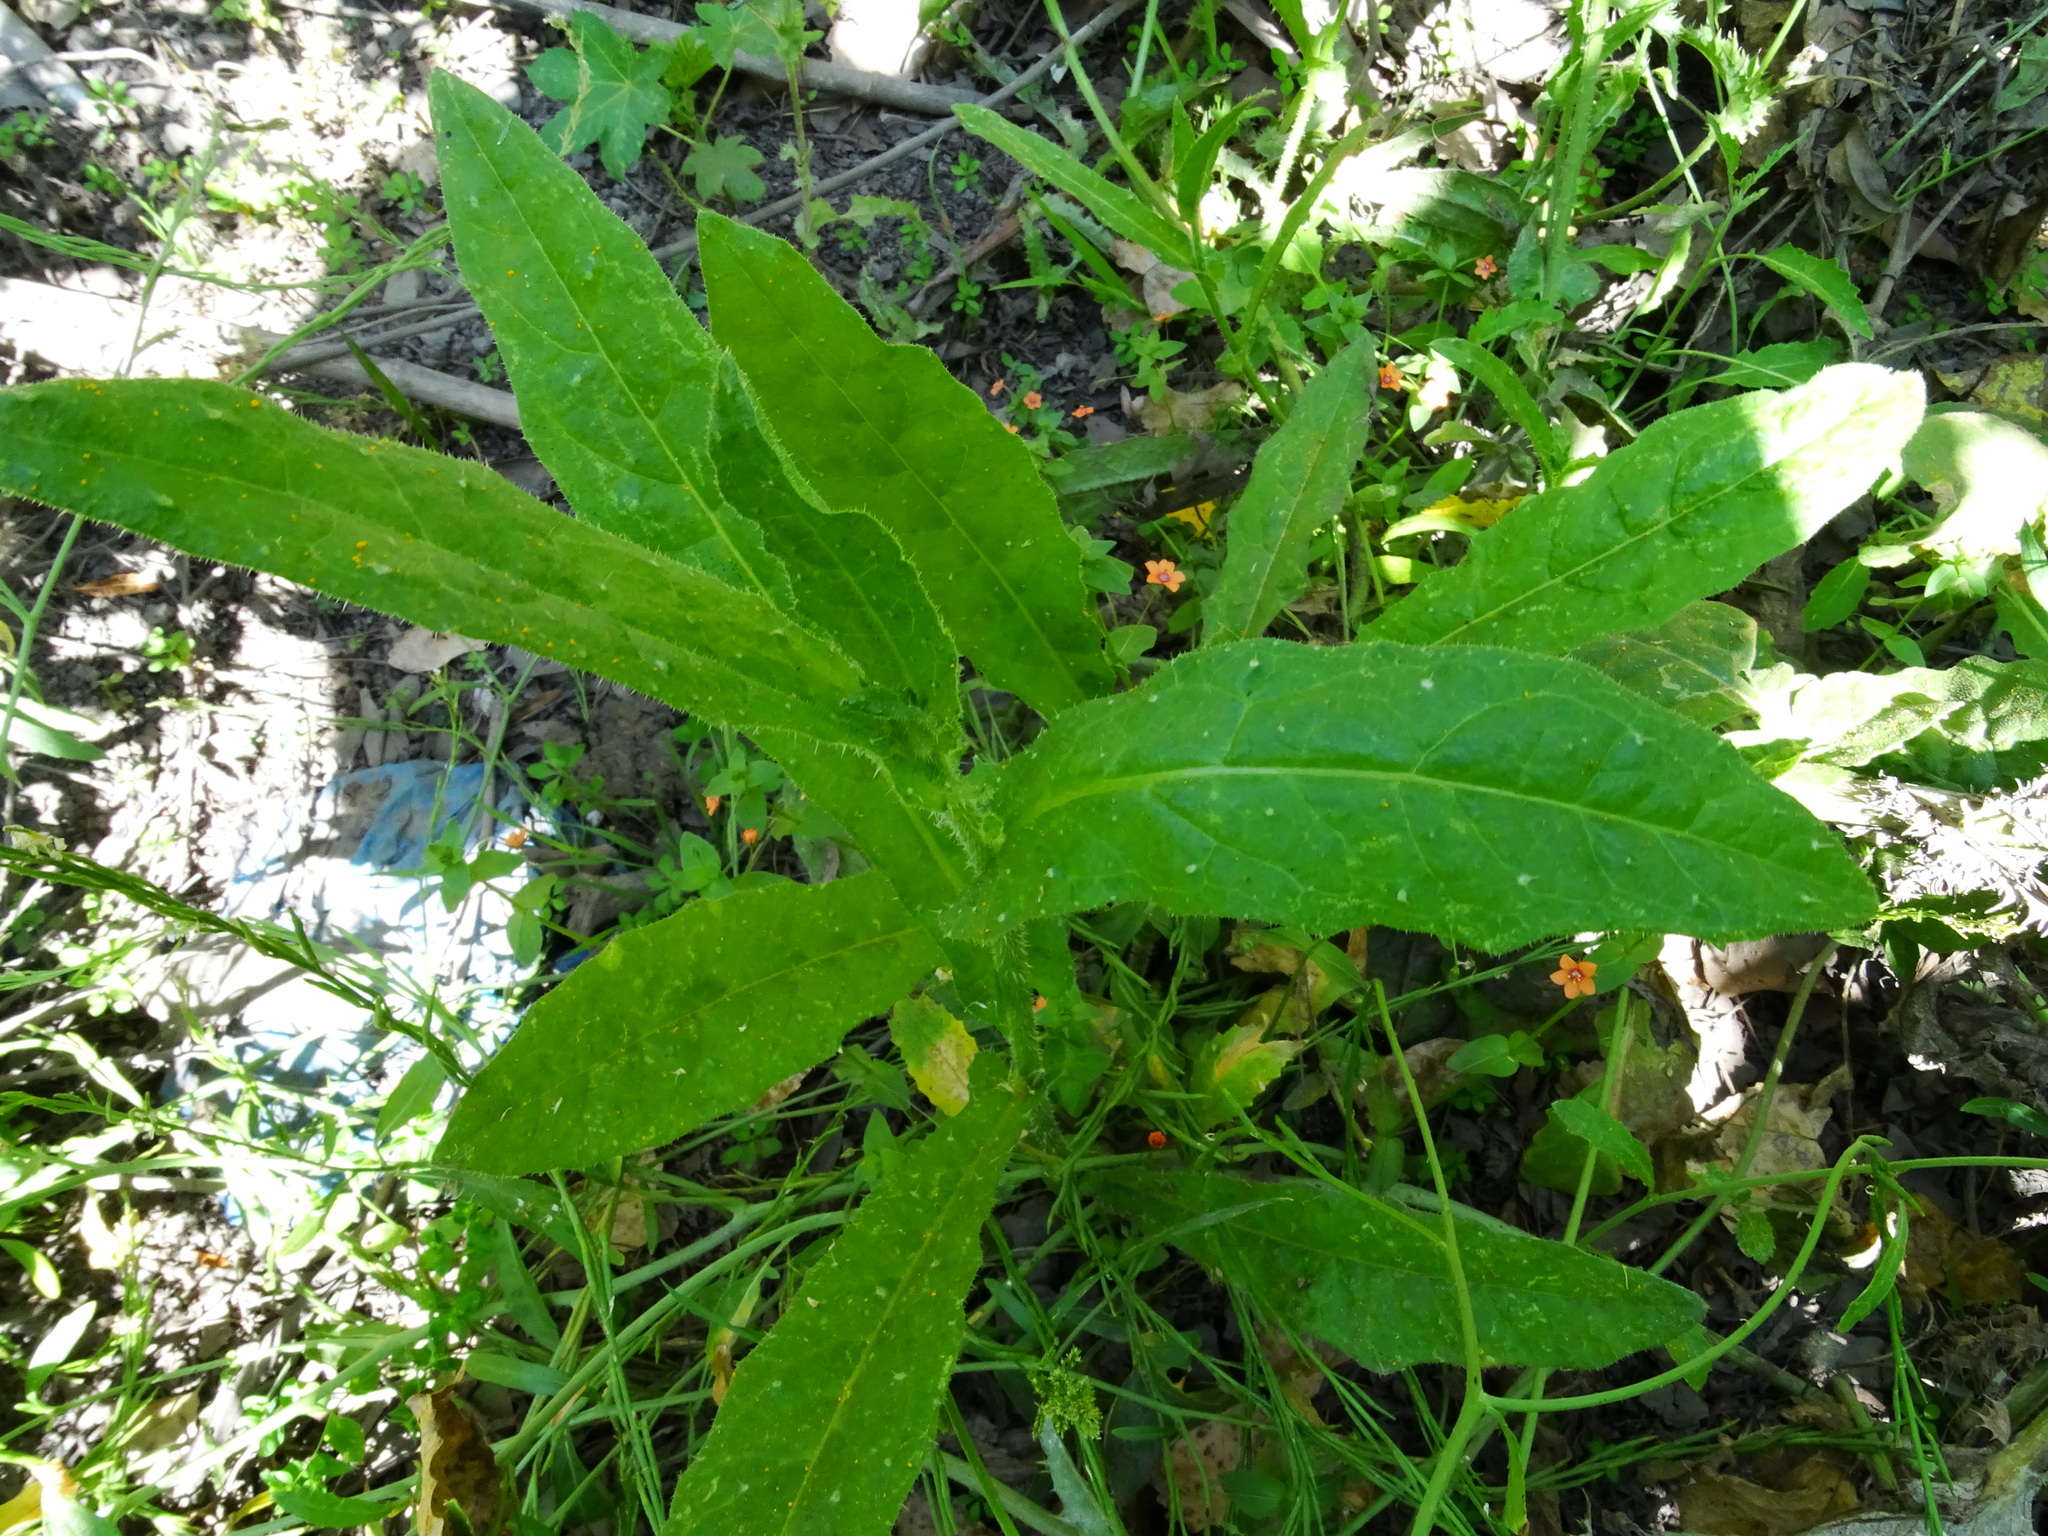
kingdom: Plantae
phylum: Tracheophyta
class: Magnoliopsida
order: Asterales
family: Asteraceae
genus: Helminthotheca
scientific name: Helminthotheca echioides
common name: Ox-tongue
